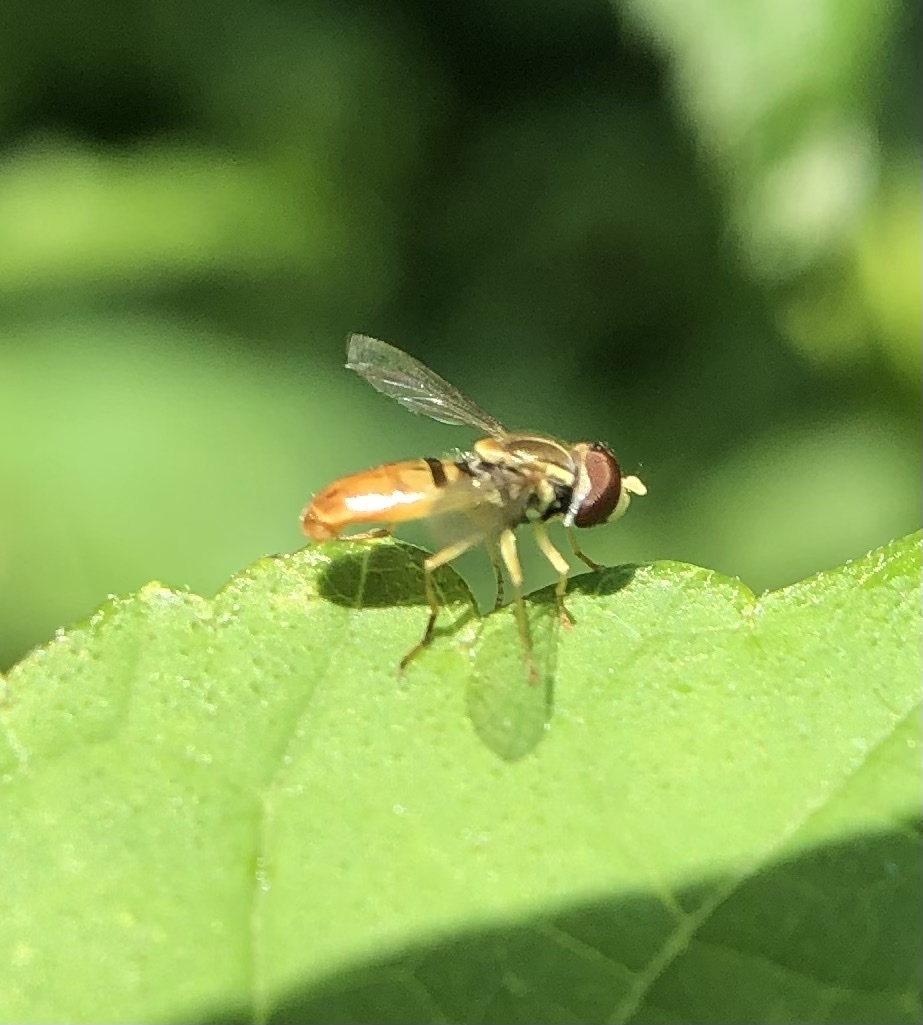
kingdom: Animalia
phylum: Arthropoda
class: Insecta
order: Diptera
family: Syrphidae
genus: Toxomerus
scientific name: Toxomerus marginatus
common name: Syrphid fly
